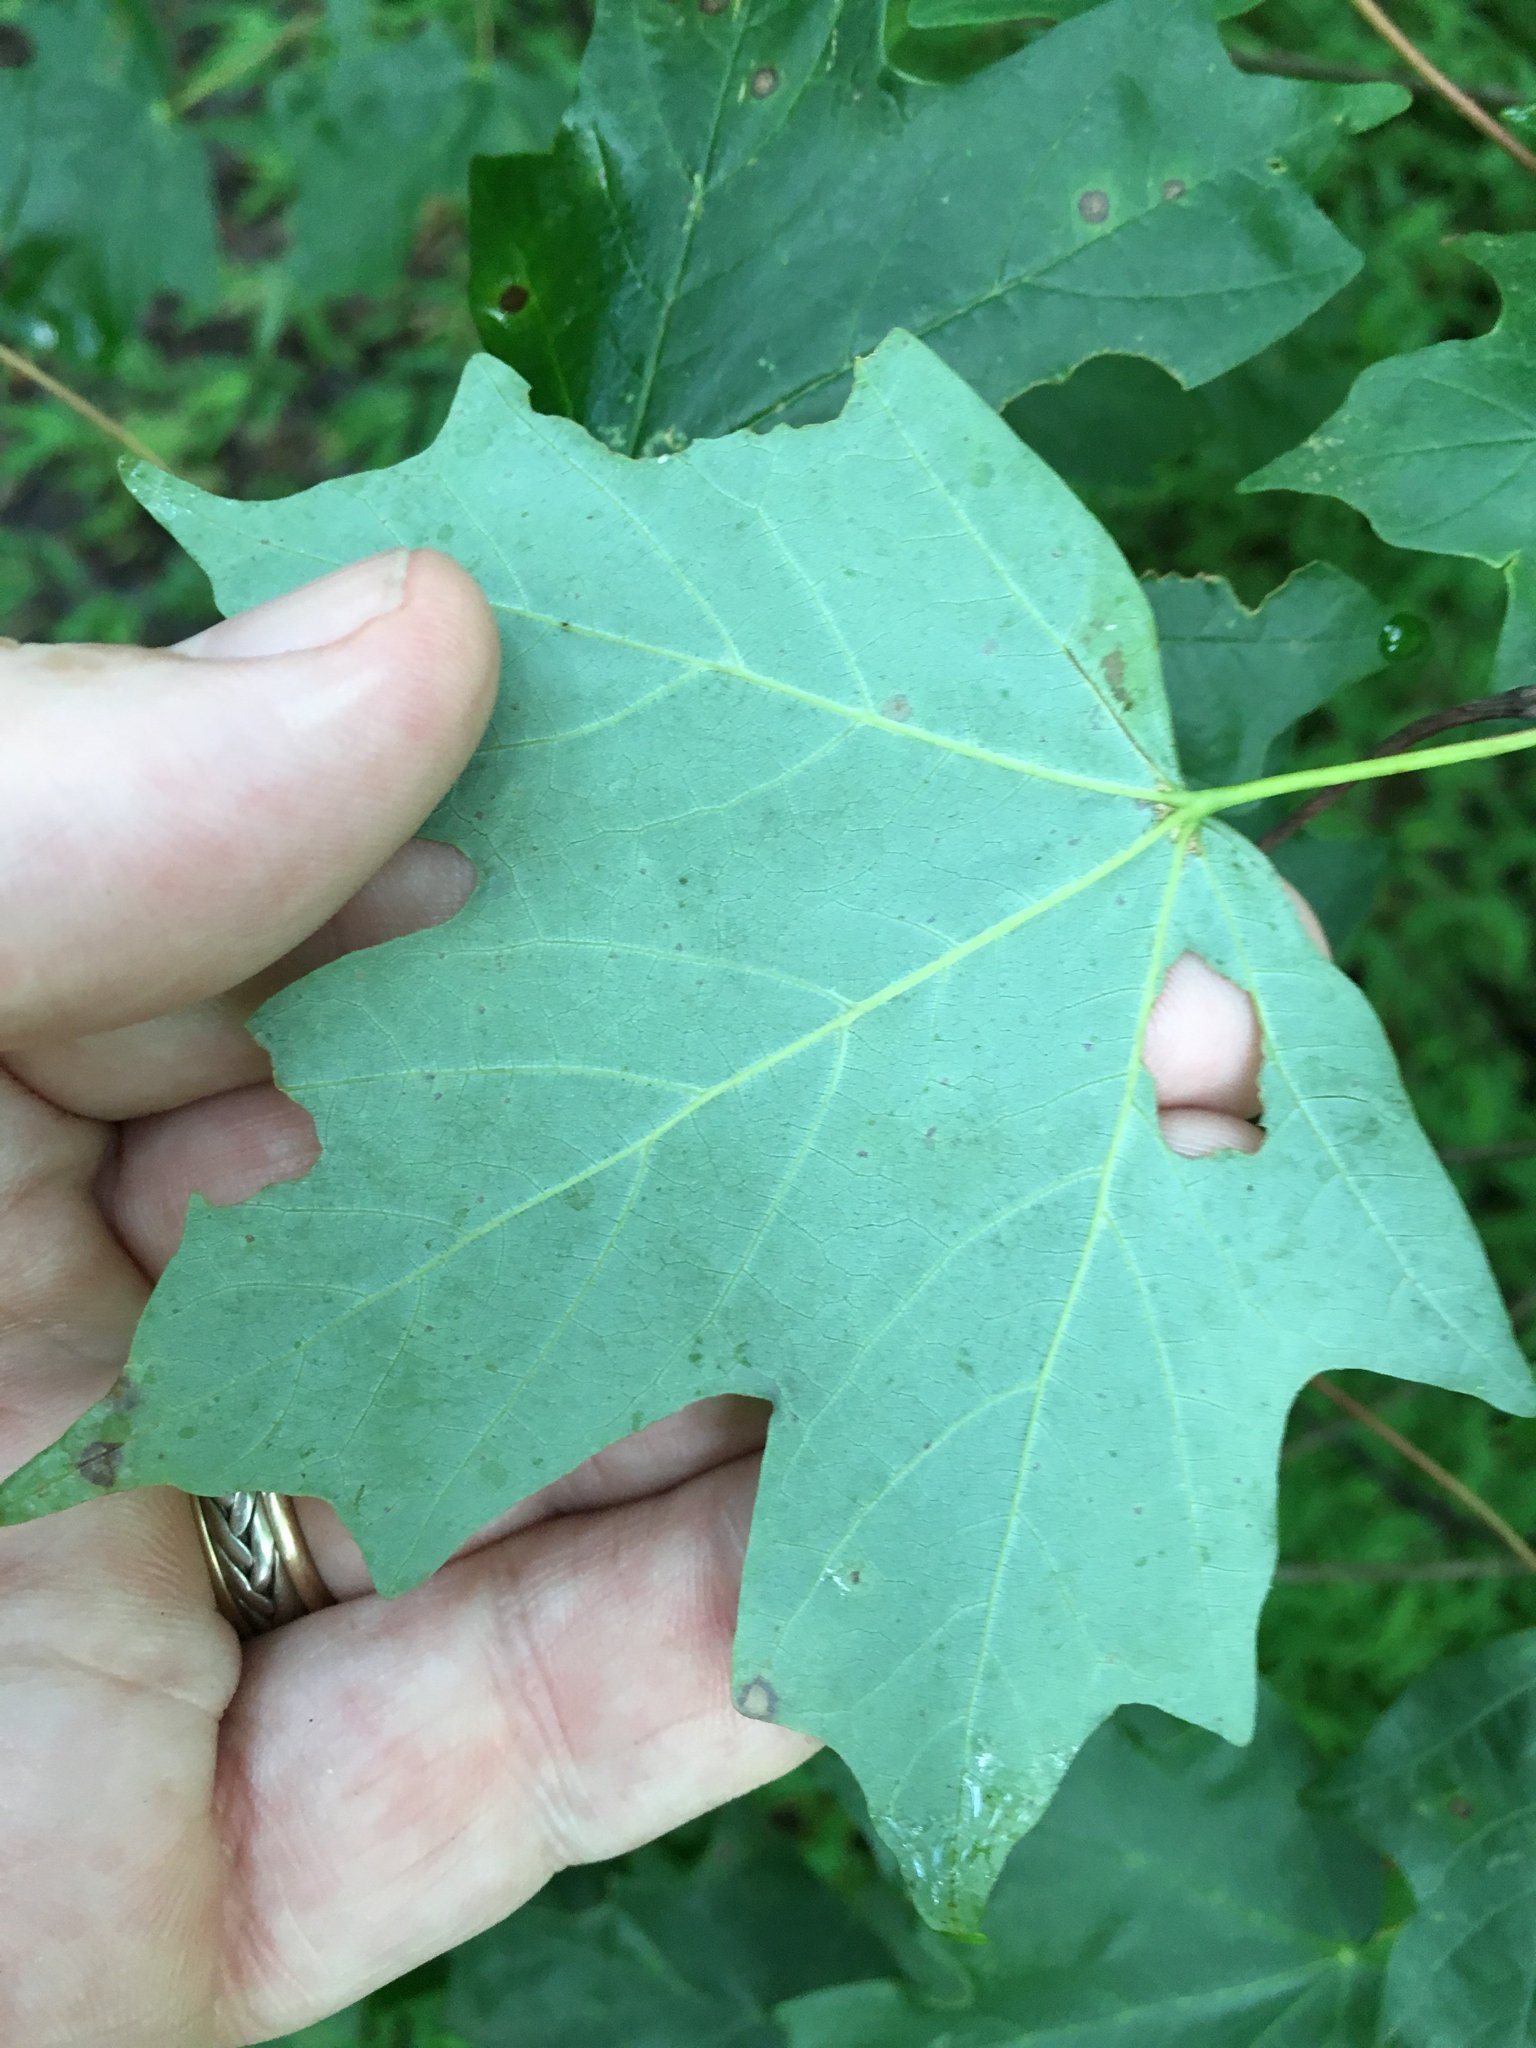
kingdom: Plantae
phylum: Tracheophyta
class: Magnoliopsida
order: Sapindales
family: Sapindaceae
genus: Acer
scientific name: Acer floridanum
